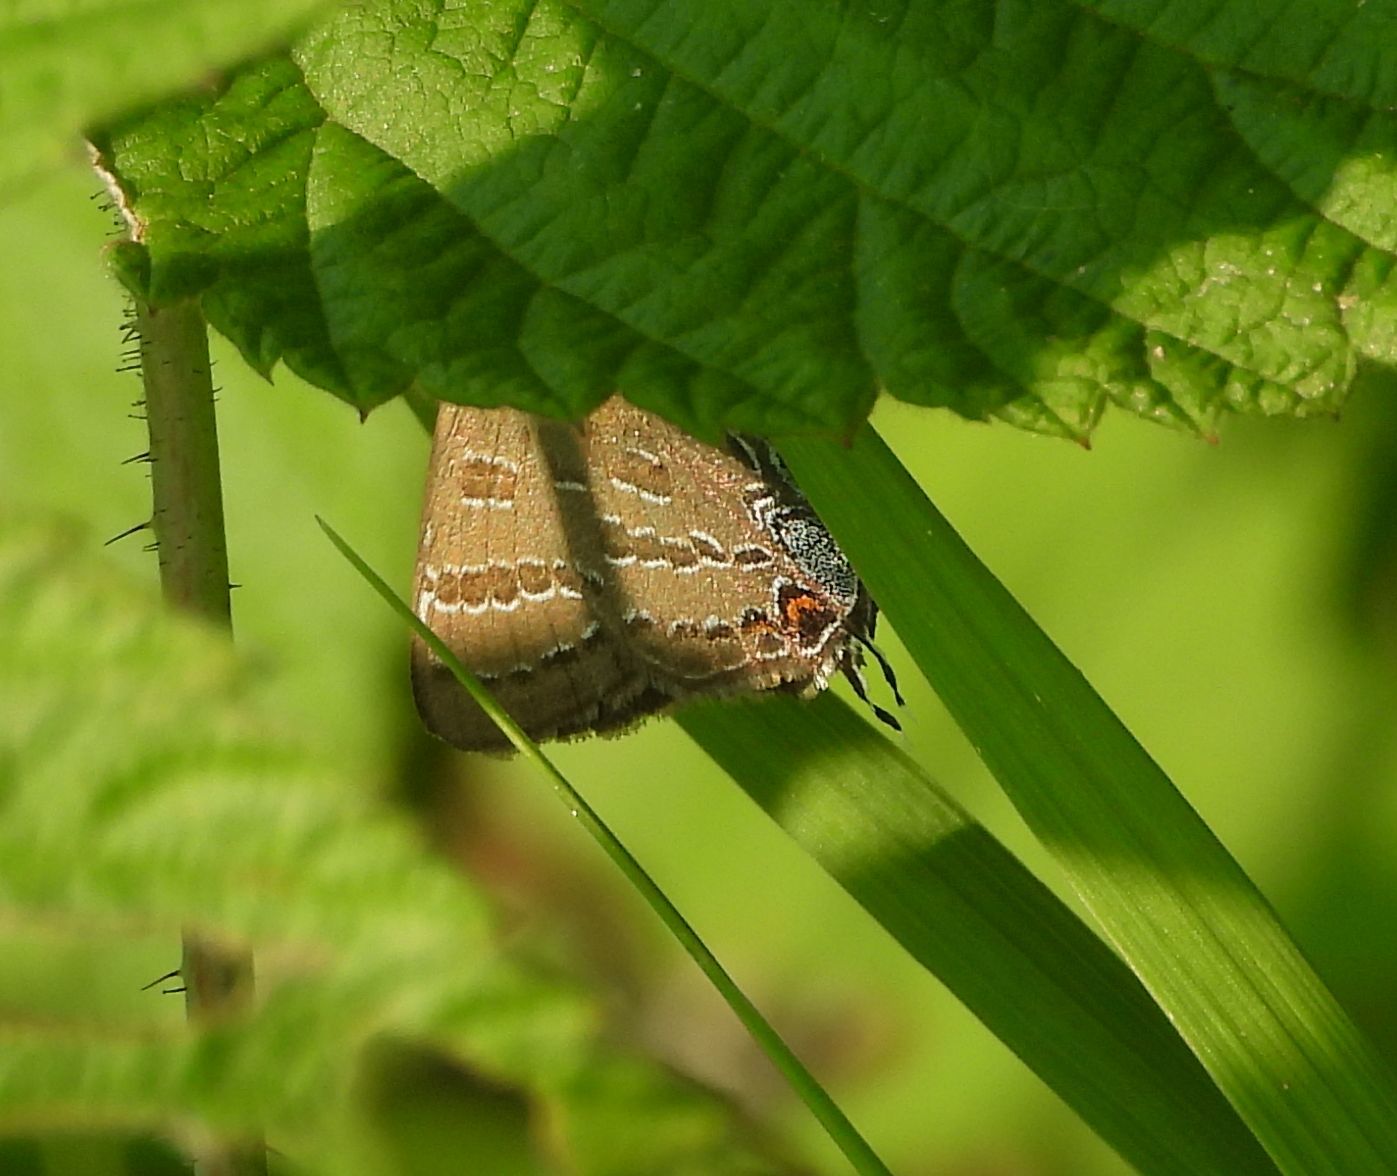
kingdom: Animalia
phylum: Arthropoda
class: Insecta
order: Lepidoptera
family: Lycaenidae
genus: Strymon
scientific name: Strymon caryaevorus
